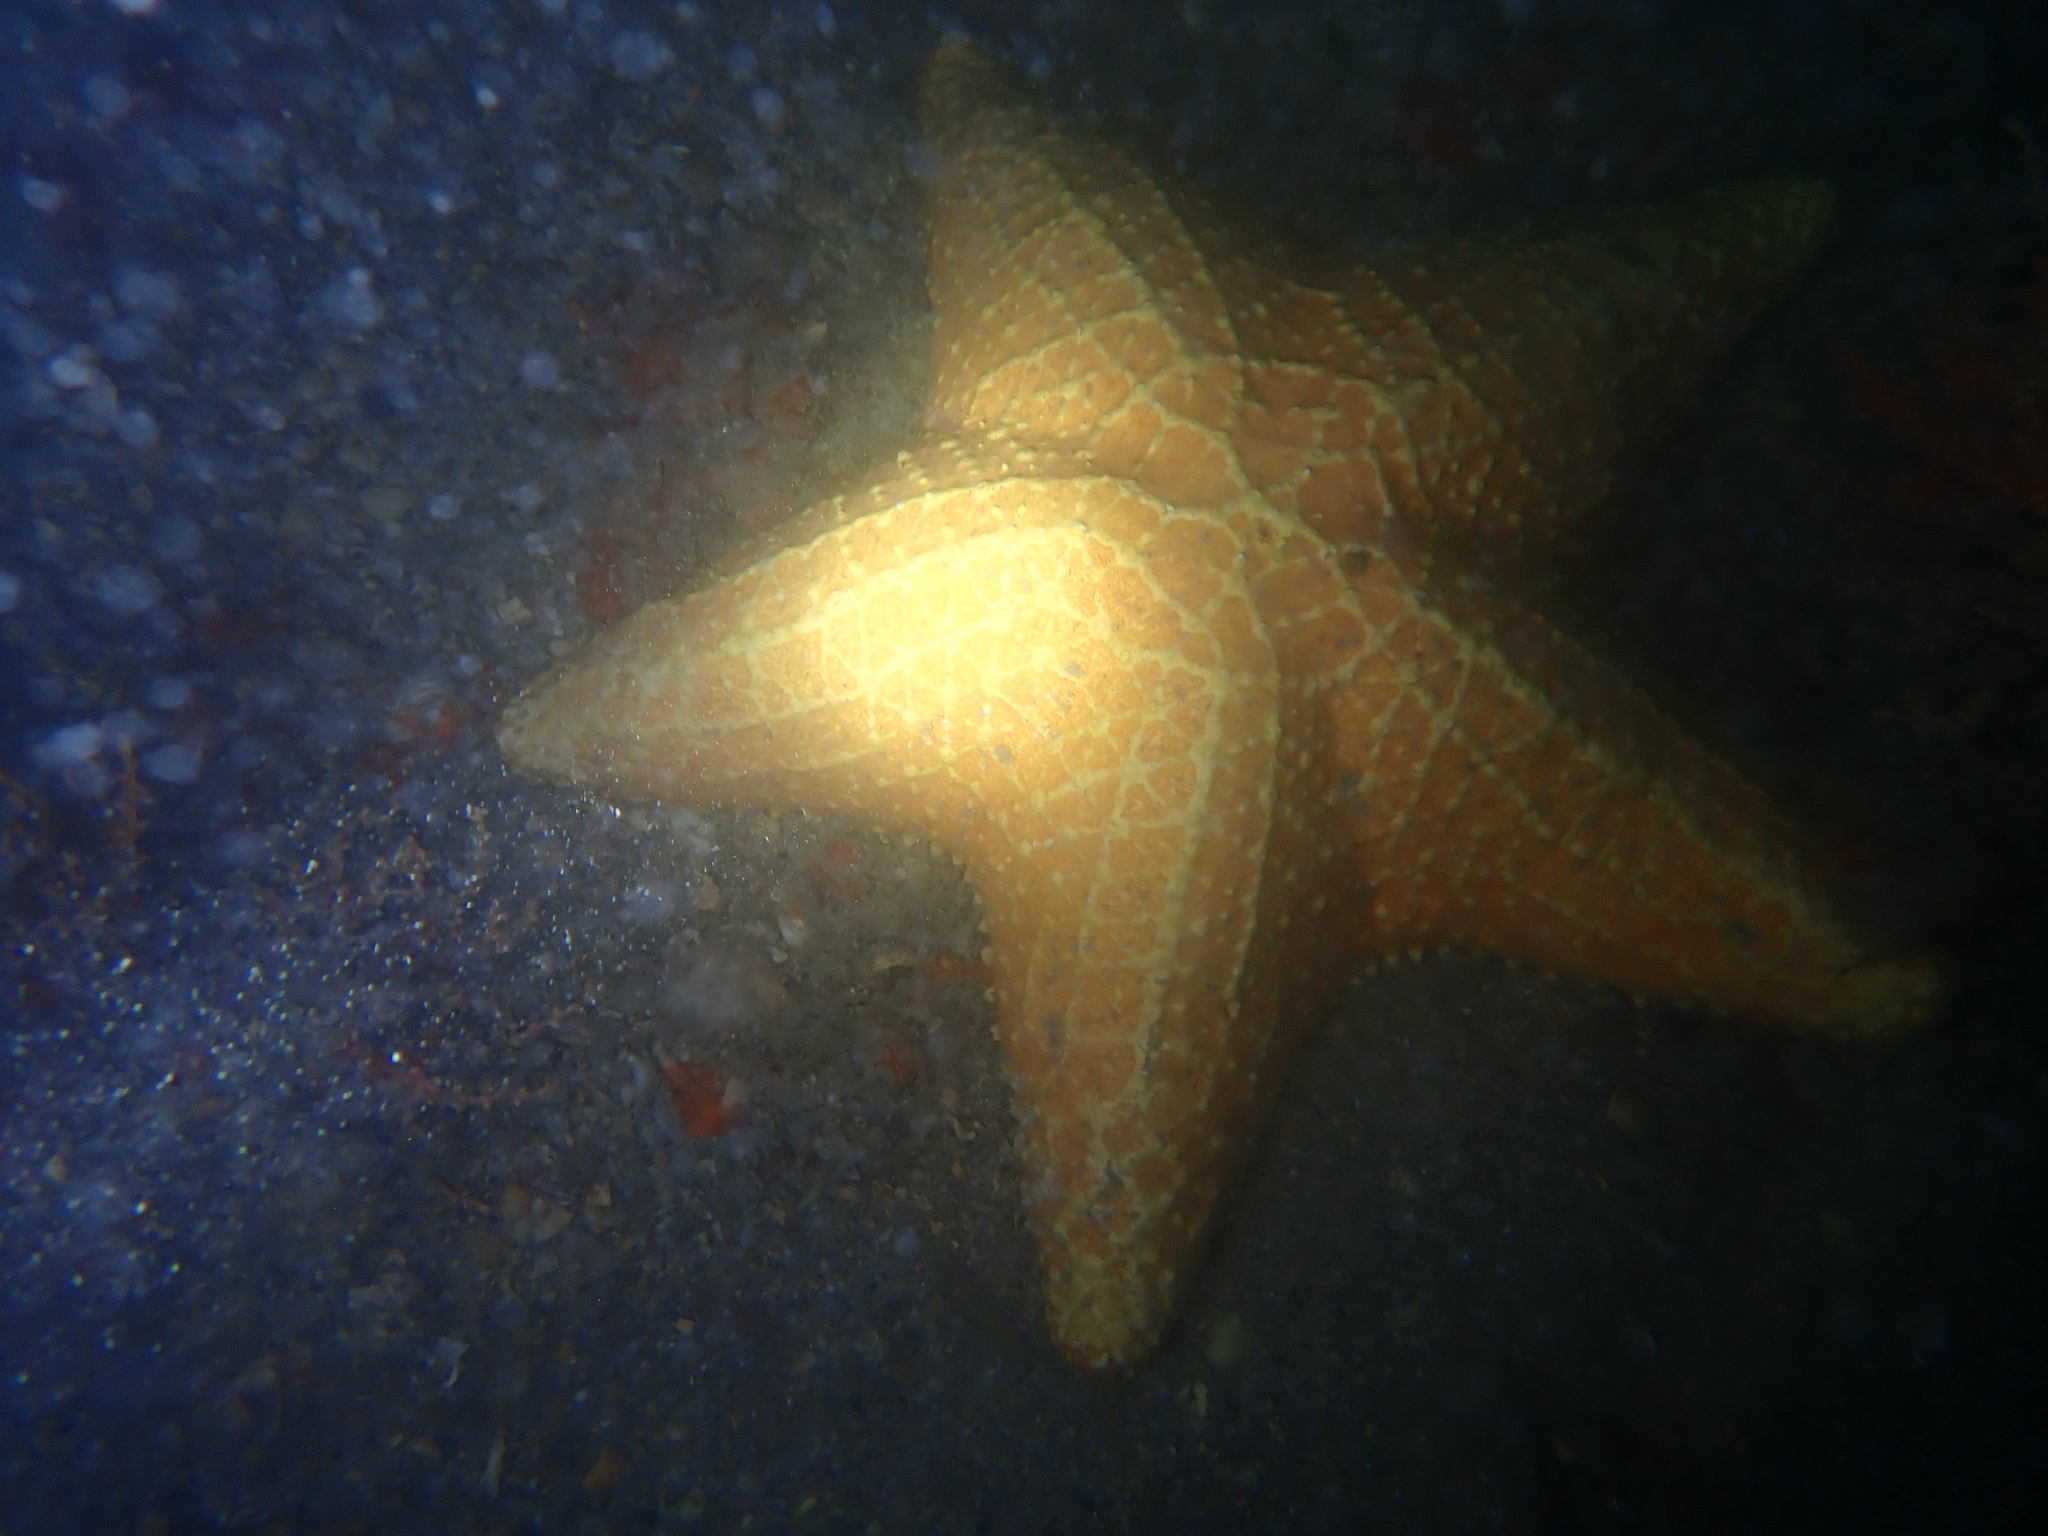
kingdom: Animalia
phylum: Echinodermata
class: Asteroidea
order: Valvatida
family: Oreasteridae
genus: Oreaster
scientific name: Oreaster reticulatus
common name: Cushion sea star
